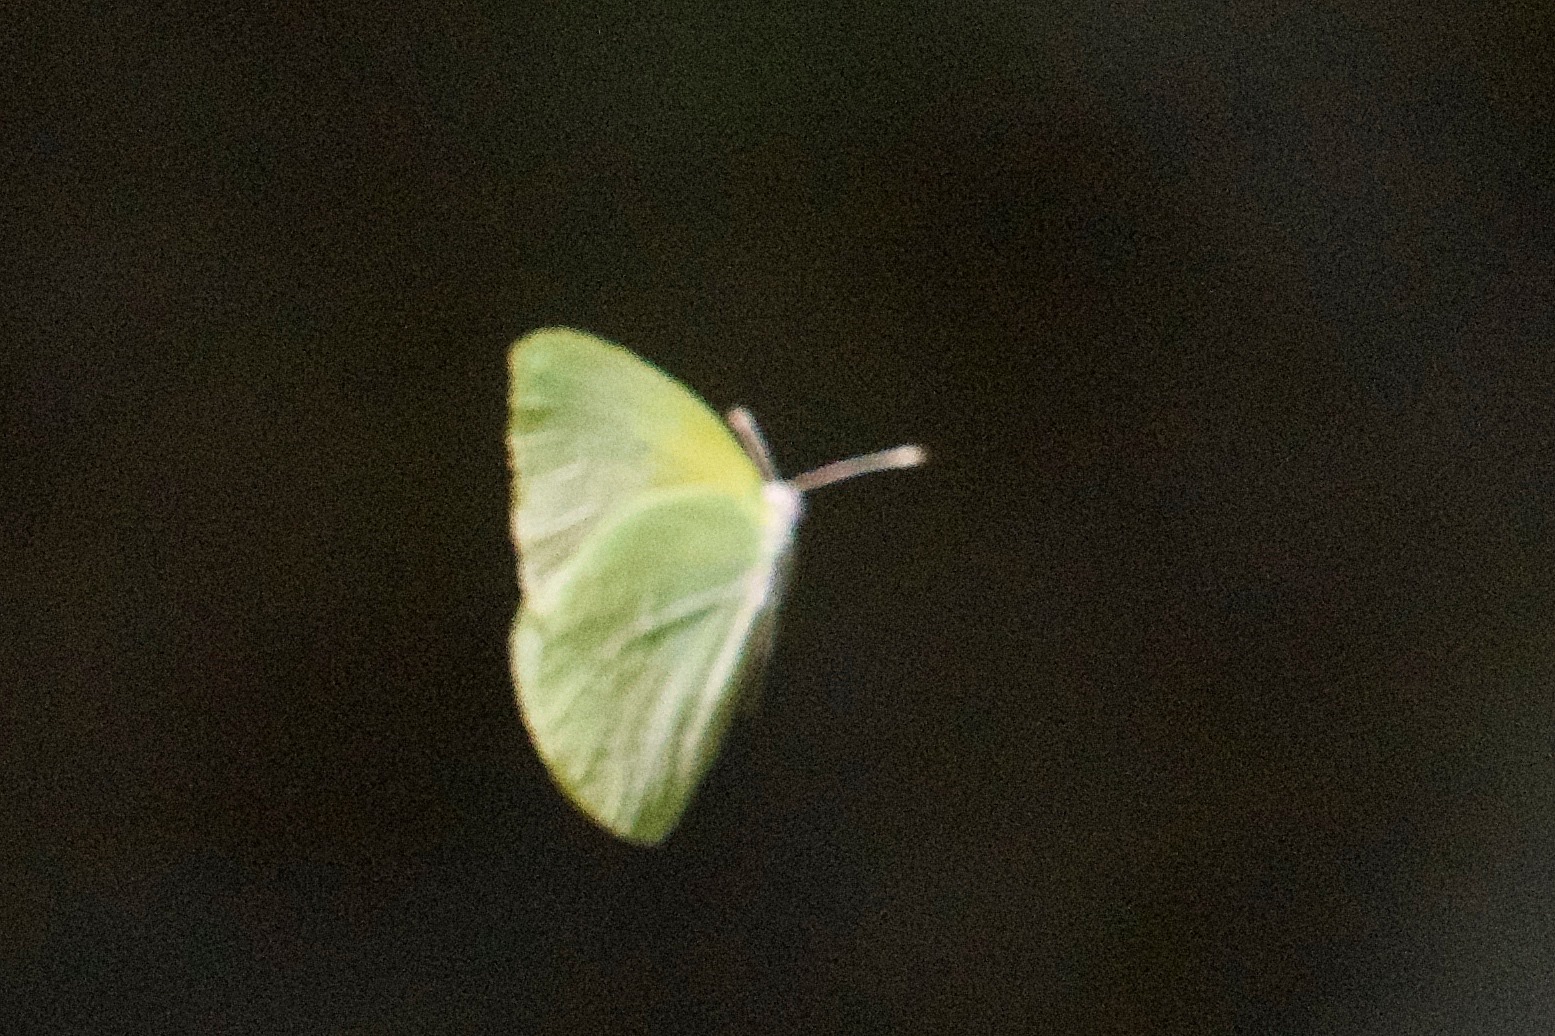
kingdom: Animalia
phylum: Arthropoda
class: Insecta
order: Lepidoptera
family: Pieridae
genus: Kricogonia
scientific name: Kricogonia lyside
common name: Guayacan sulphur,
